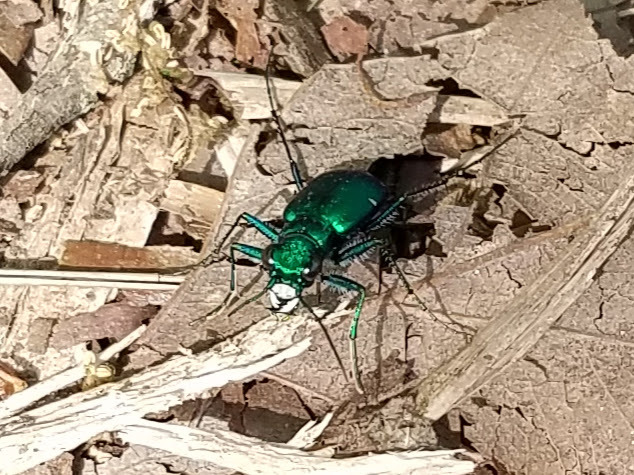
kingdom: Animalia
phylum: Arthropoda
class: Insecta
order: Coleoptera
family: Carabidae
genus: Cicindela
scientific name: Cicindela sexguttata
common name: Six-spotted tiger beetle
